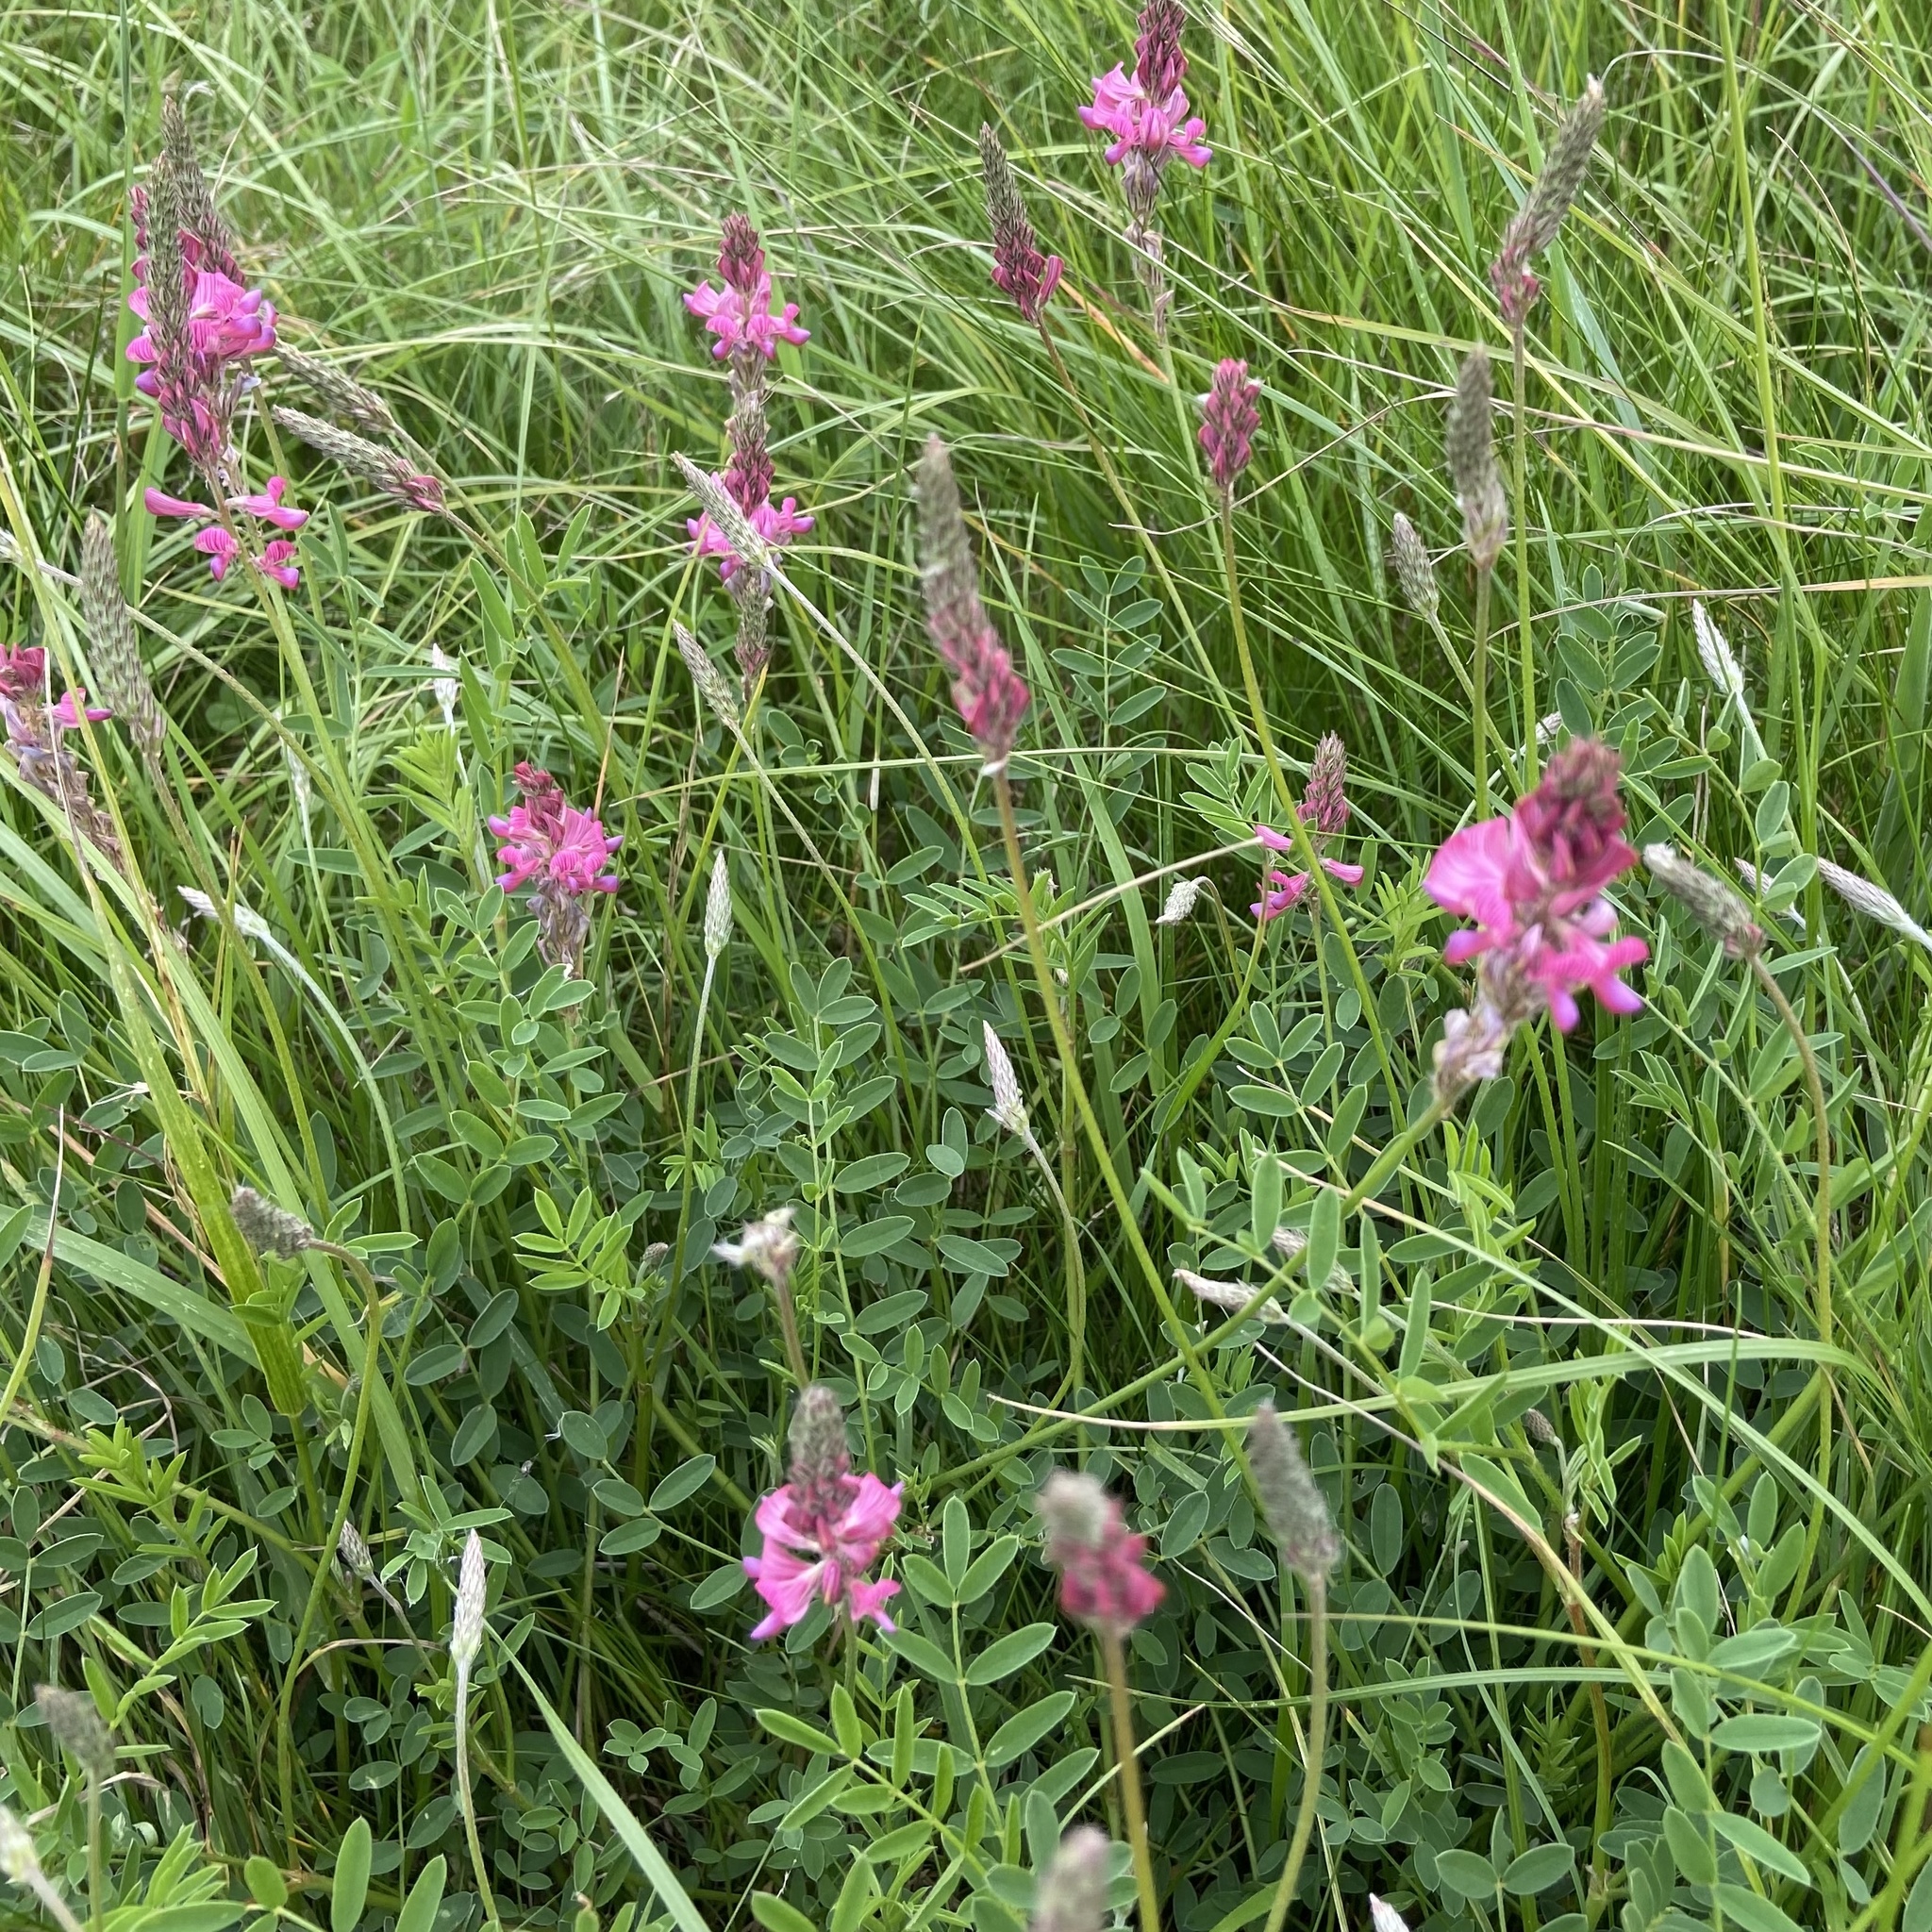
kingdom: Plantae
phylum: Tracheophyta
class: Magnoliopsida
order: Fabales
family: Fabaceae
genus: Onobrychis
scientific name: Onobrychis viciifolia
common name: Sainfoin
